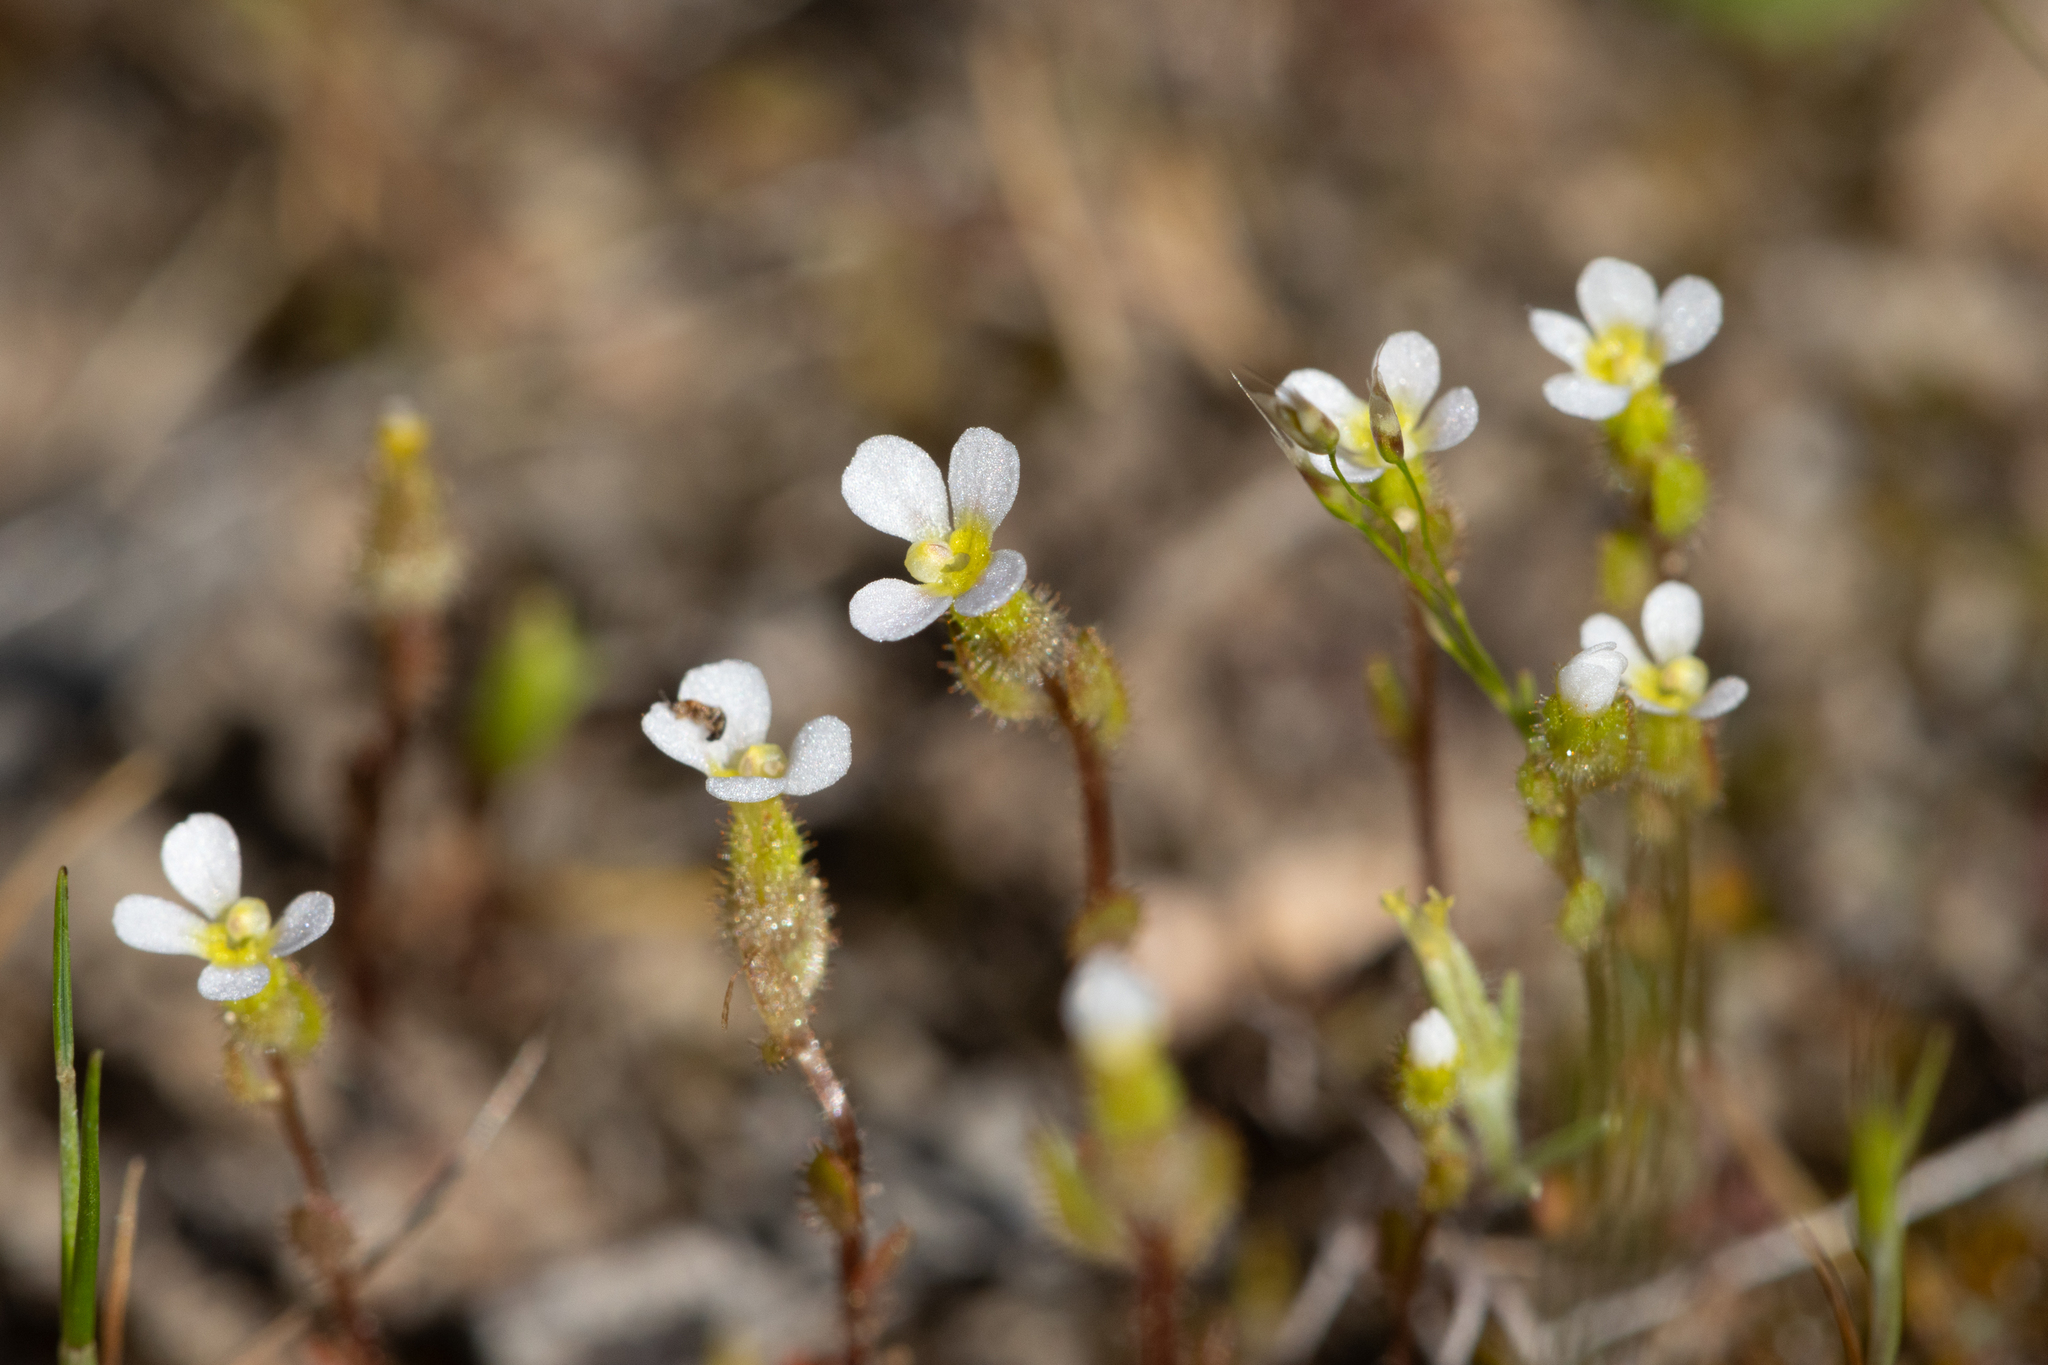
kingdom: Plantae
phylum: Tracheophyta
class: Magnoliopsida
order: Asterales
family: Stylidiaceae
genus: Levenhookia
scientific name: Levenhookia dubia
